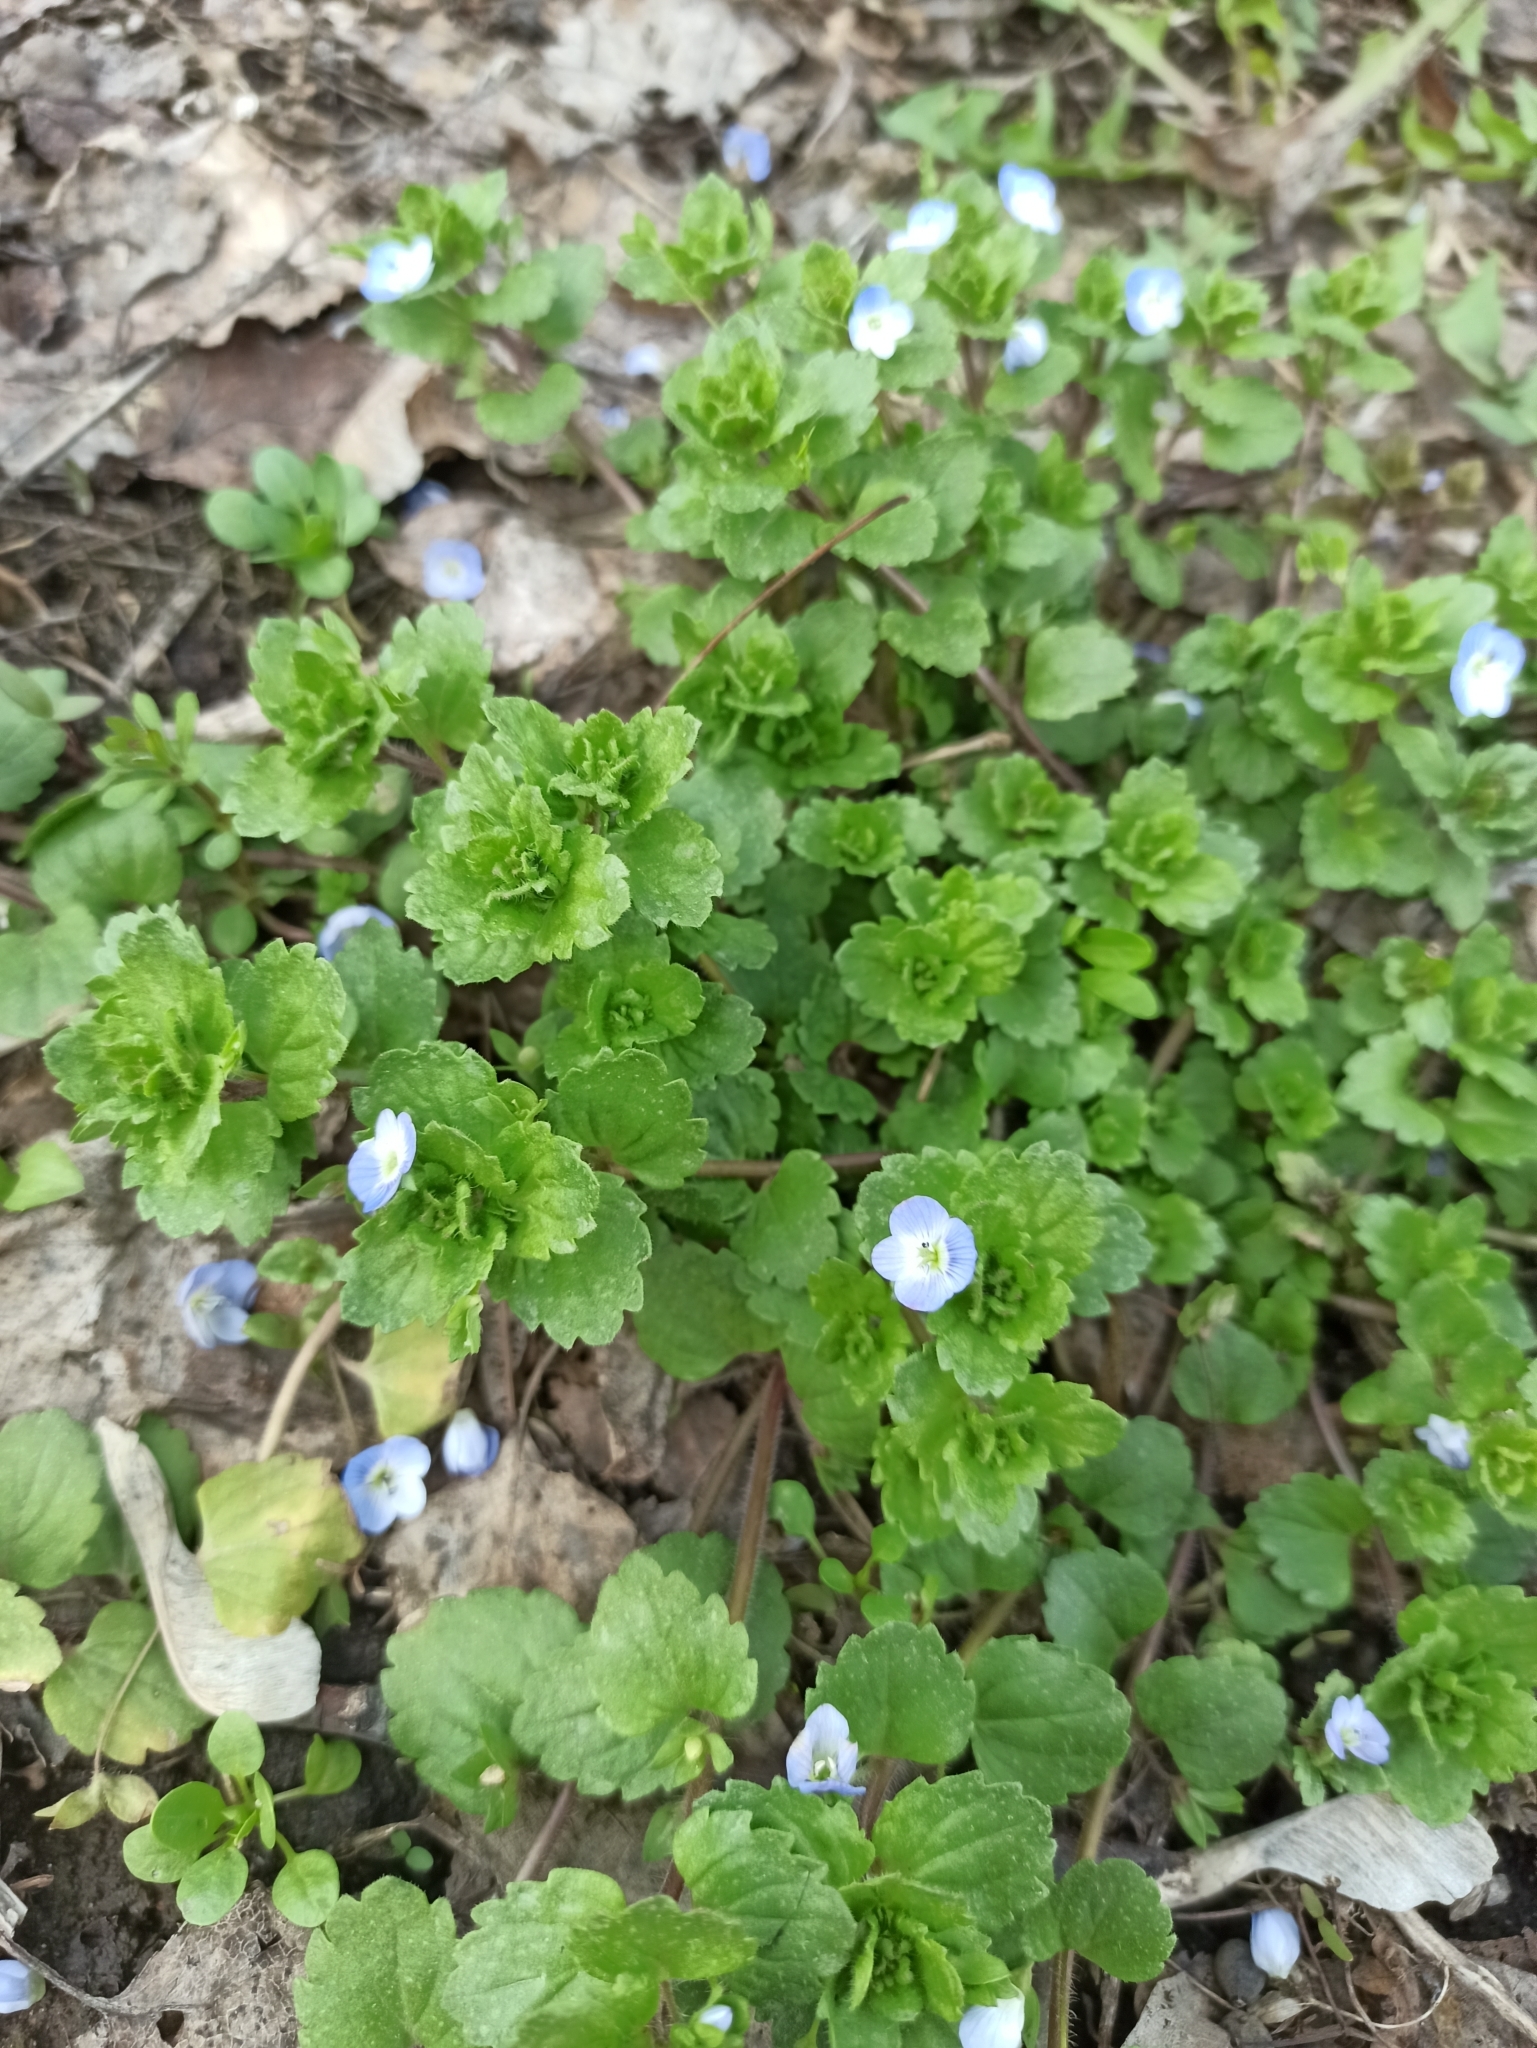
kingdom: Plantae
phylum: Tracheophyta
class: Magnoliopsida
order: Lamiales
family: Plantaginaceae
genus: Veronica
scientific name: Veronica persica
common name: Common field-speedwell
